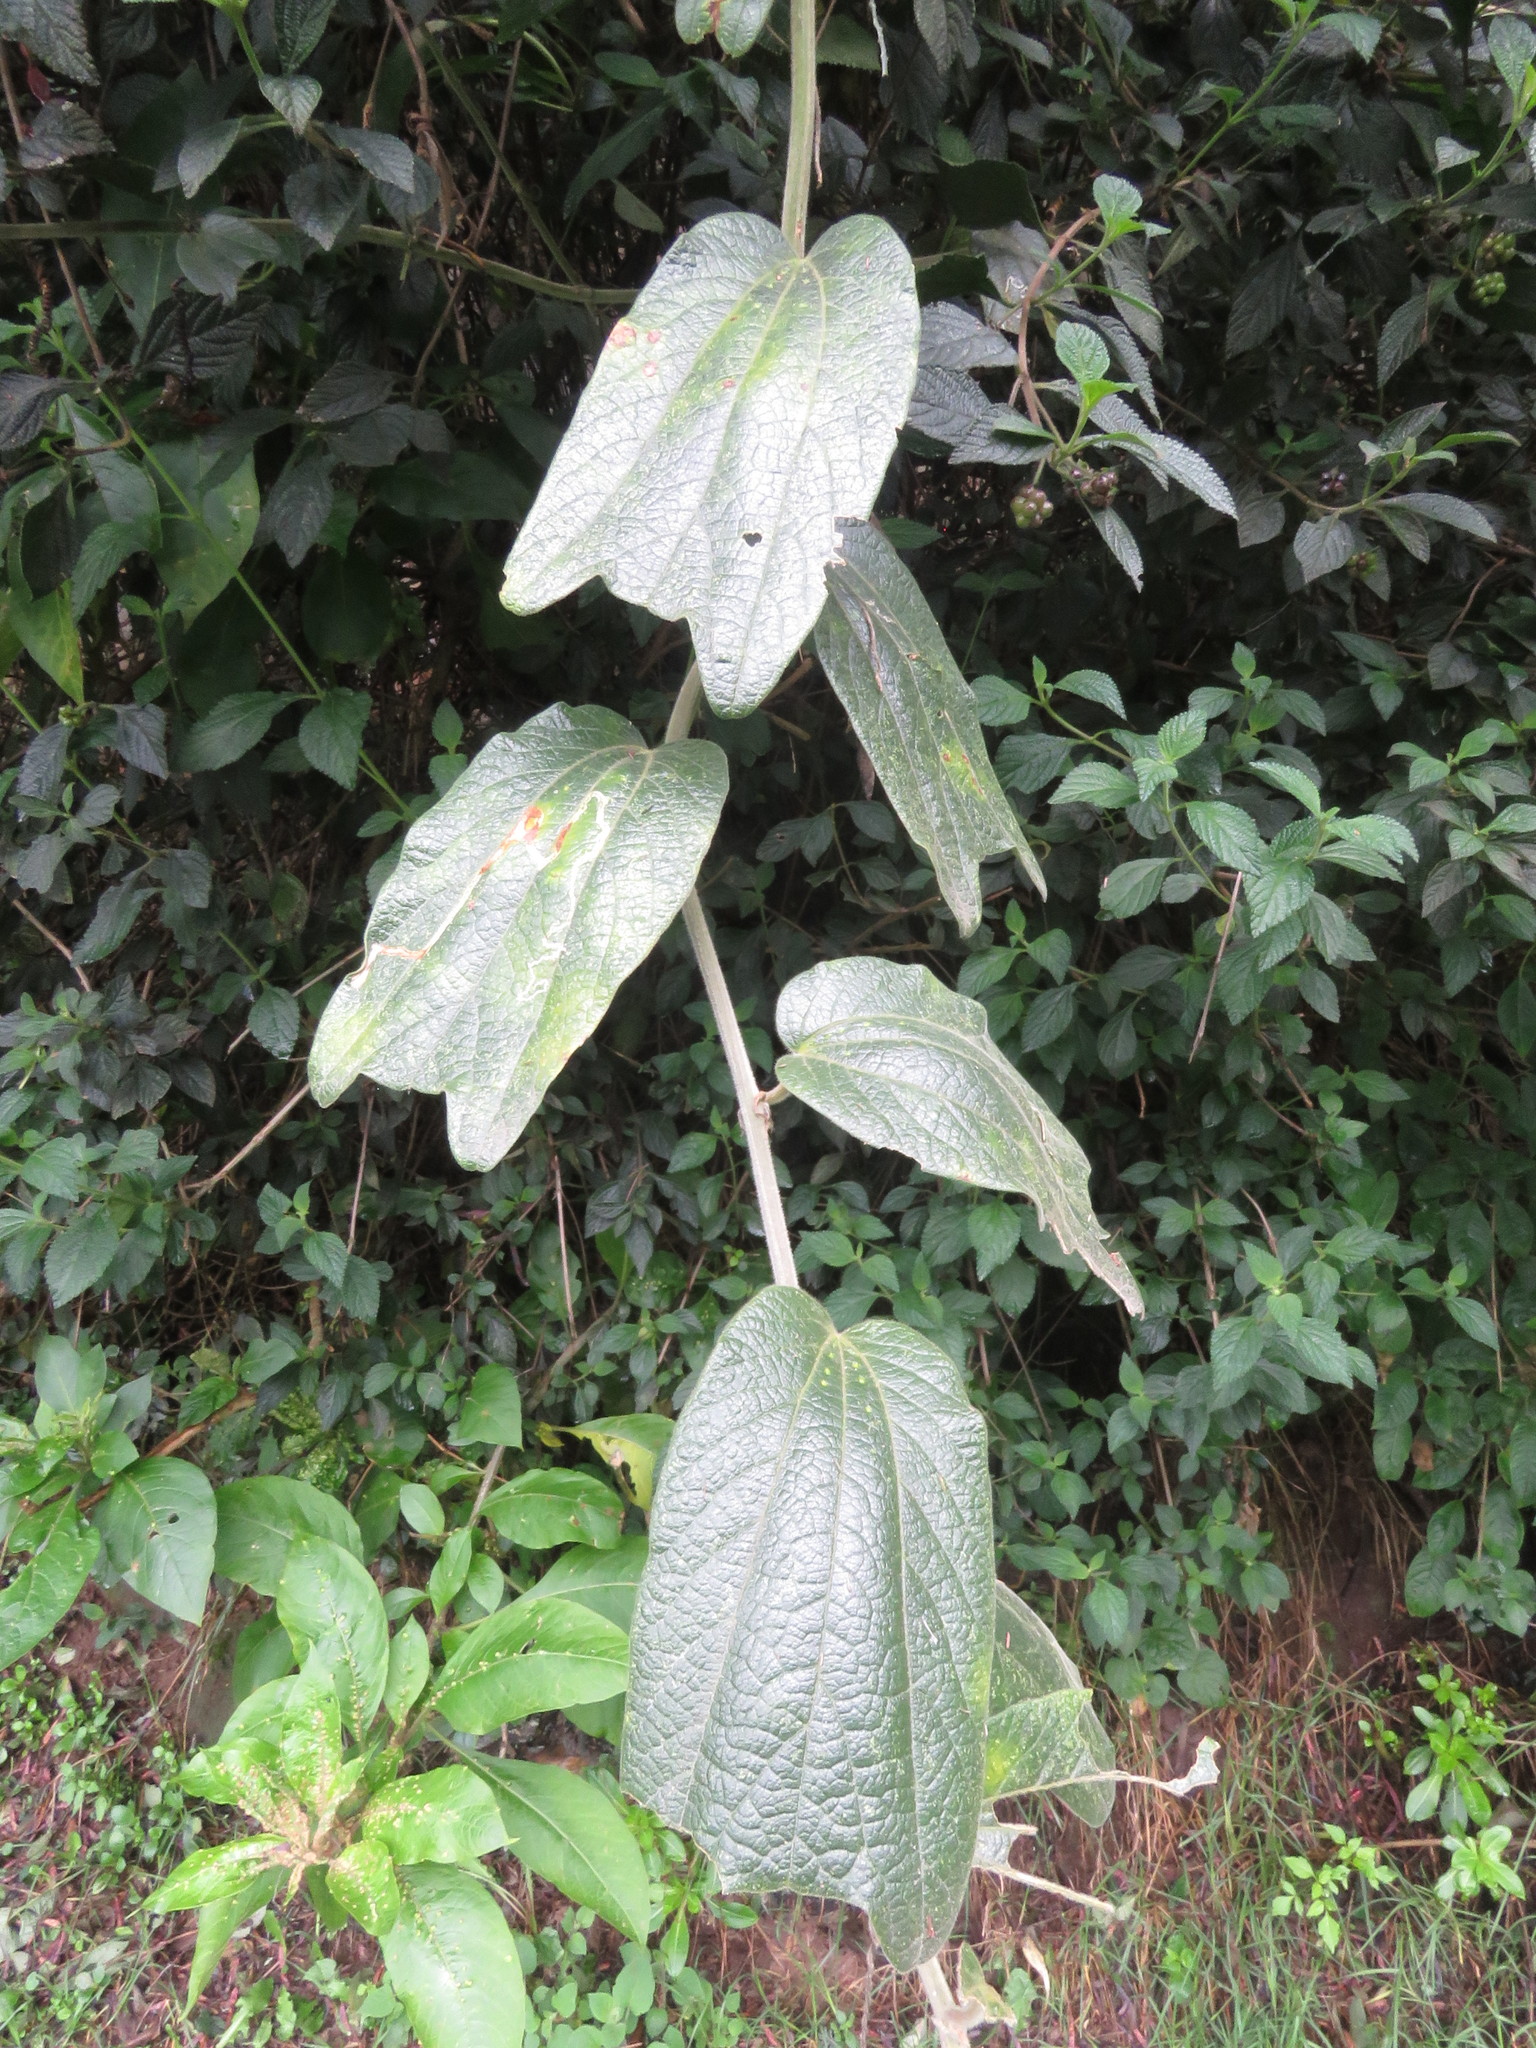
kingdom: Plantae
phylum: Tracheophyta
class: Magnoliopsida
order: Malpighiales
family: Passifloraceae
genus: Passiflora
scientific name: Passiflora bogotensis
